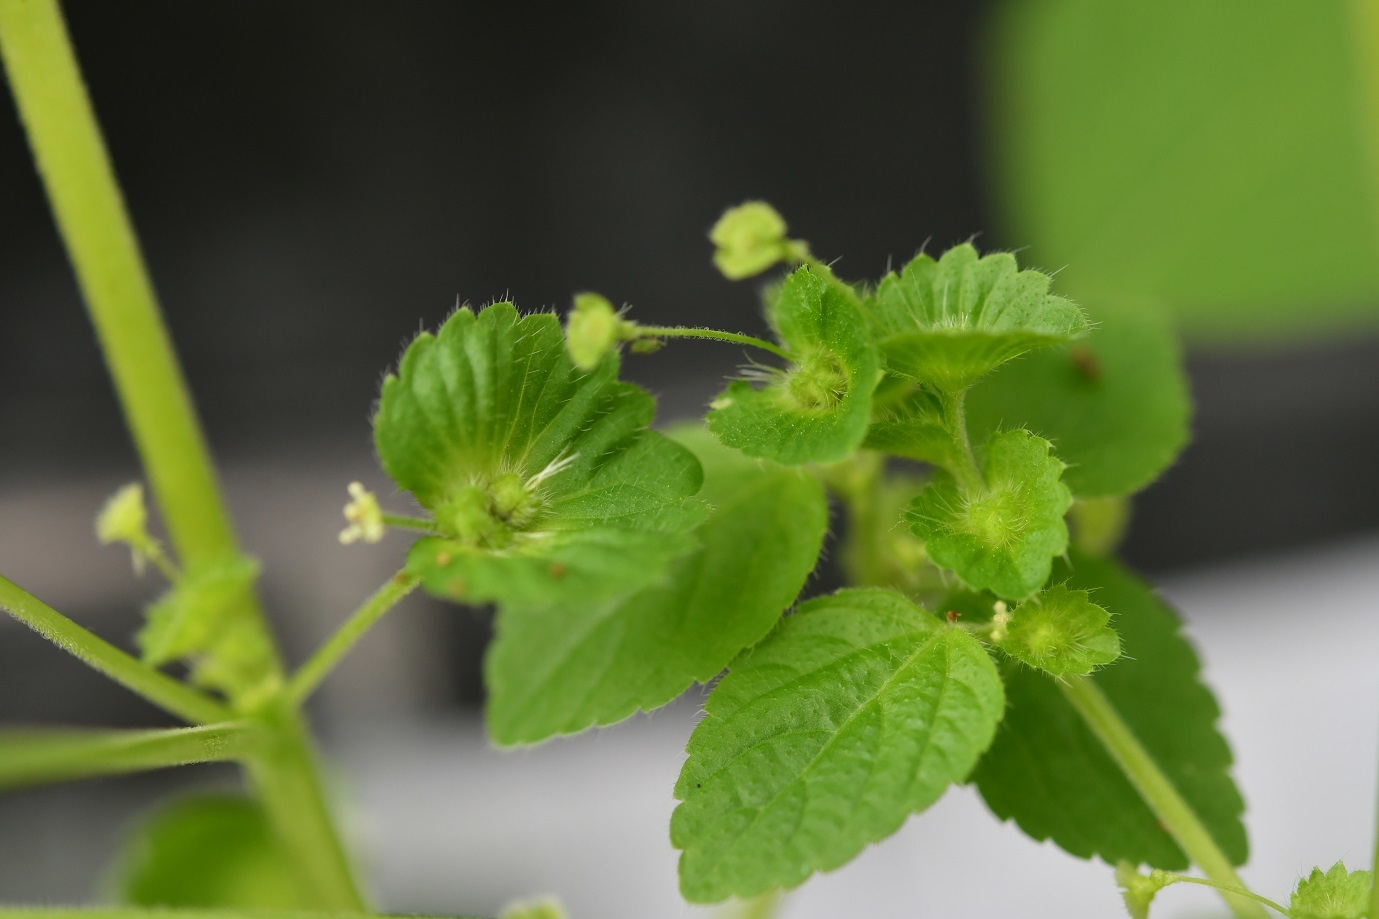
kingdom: Plantae
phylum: Tracheophyta
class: Magnoliopsida
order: Malpighiales
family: Euphorbiaceae
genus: Acalypha
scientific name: Acalypha mexicana
